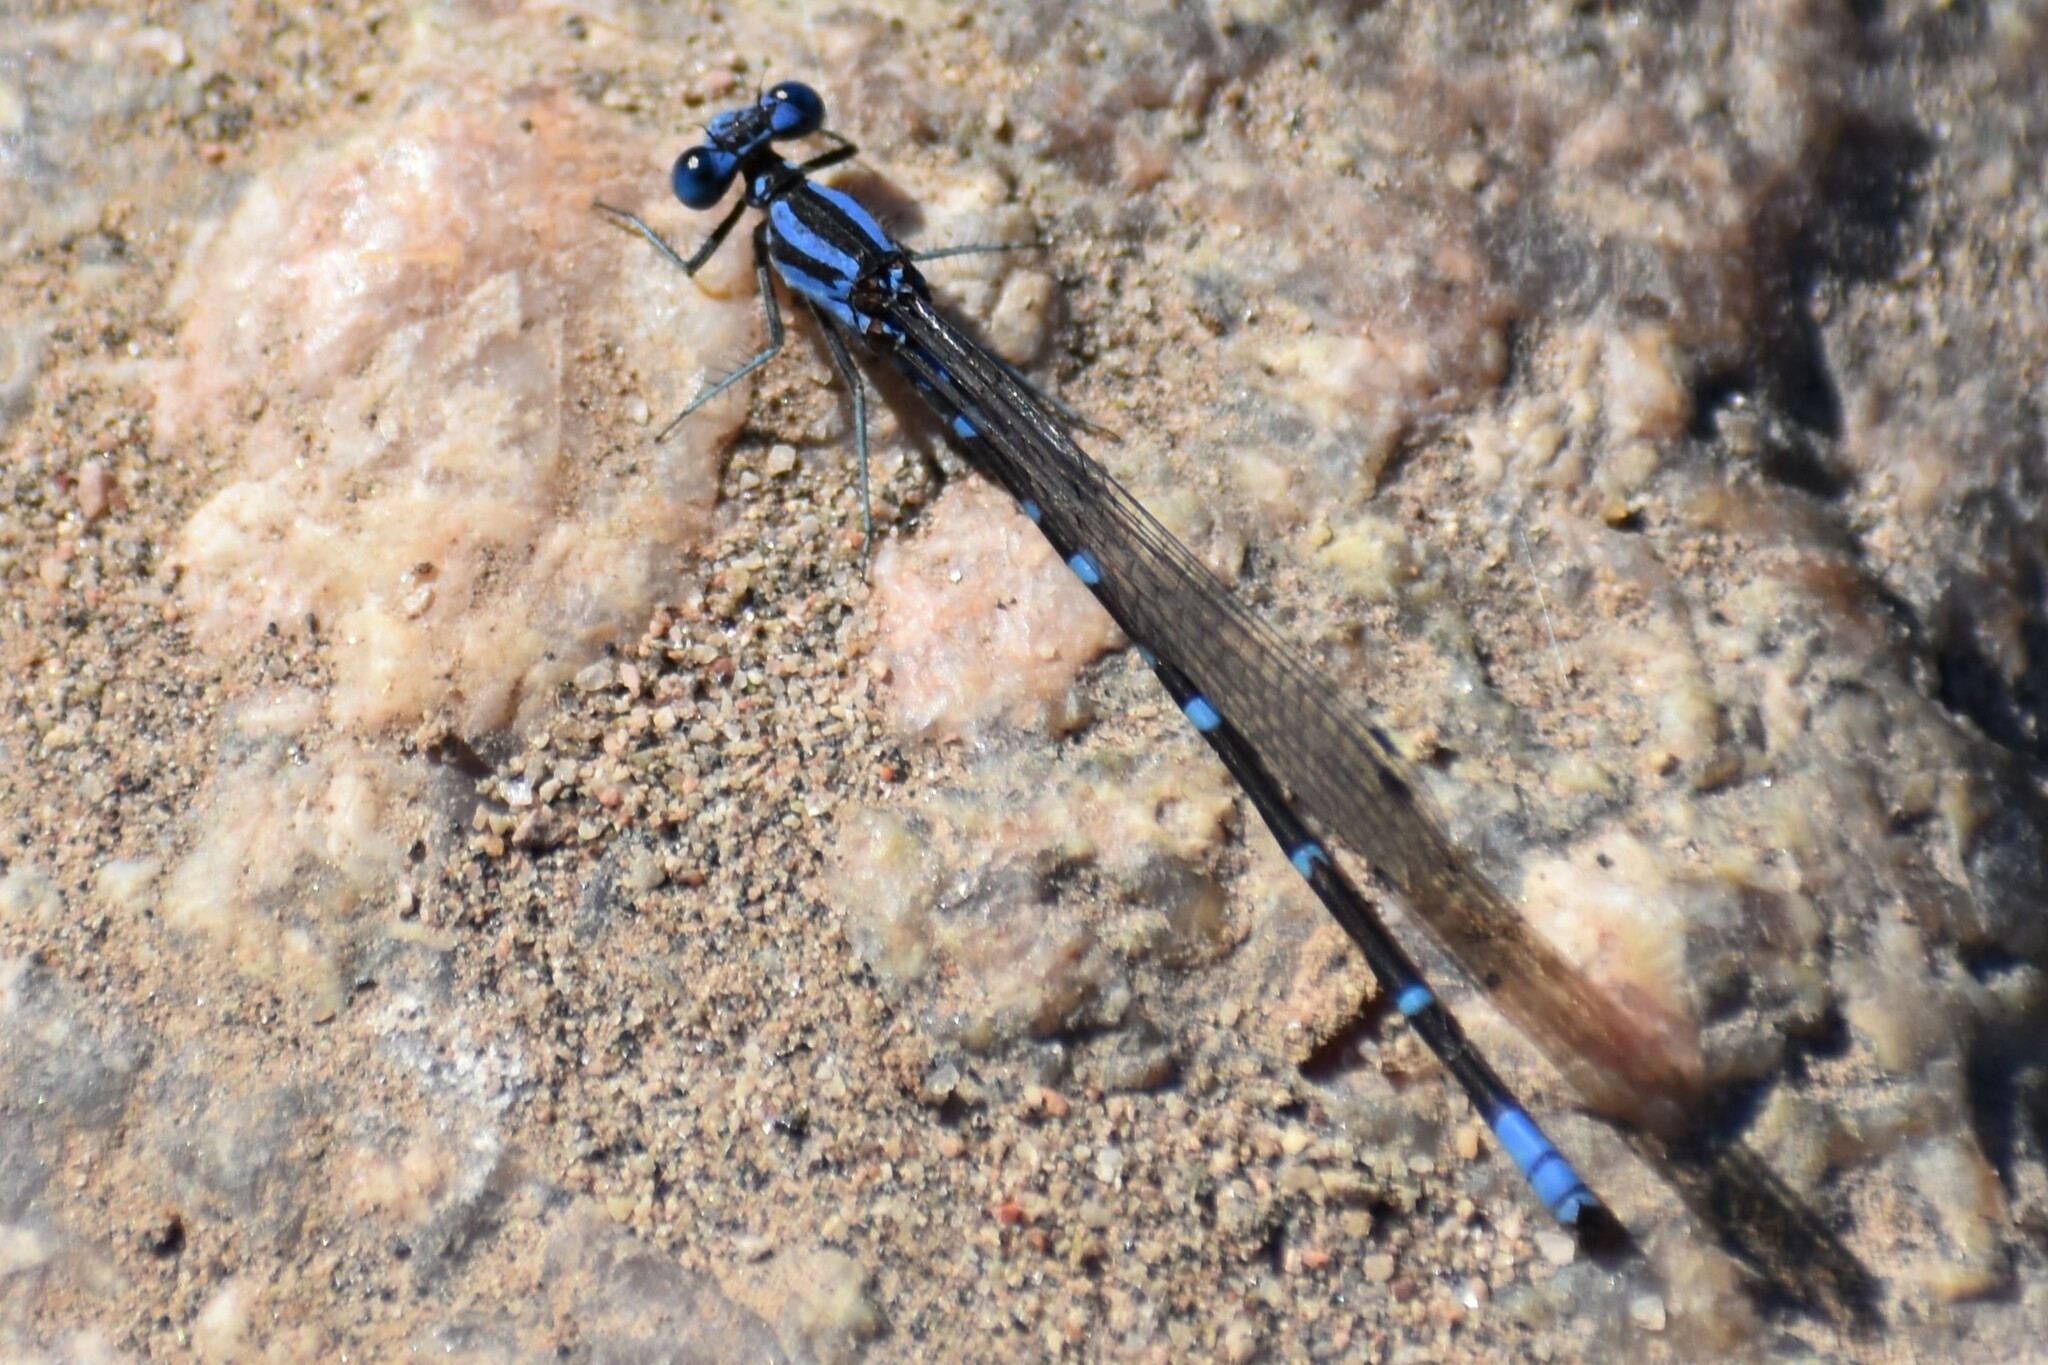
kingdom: Animalia
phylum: Arthropoda
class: Insecta
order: Odonata
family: Coenagrionidae
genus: Argia
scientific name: Argia sedula
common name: Blue-ringed dancer
